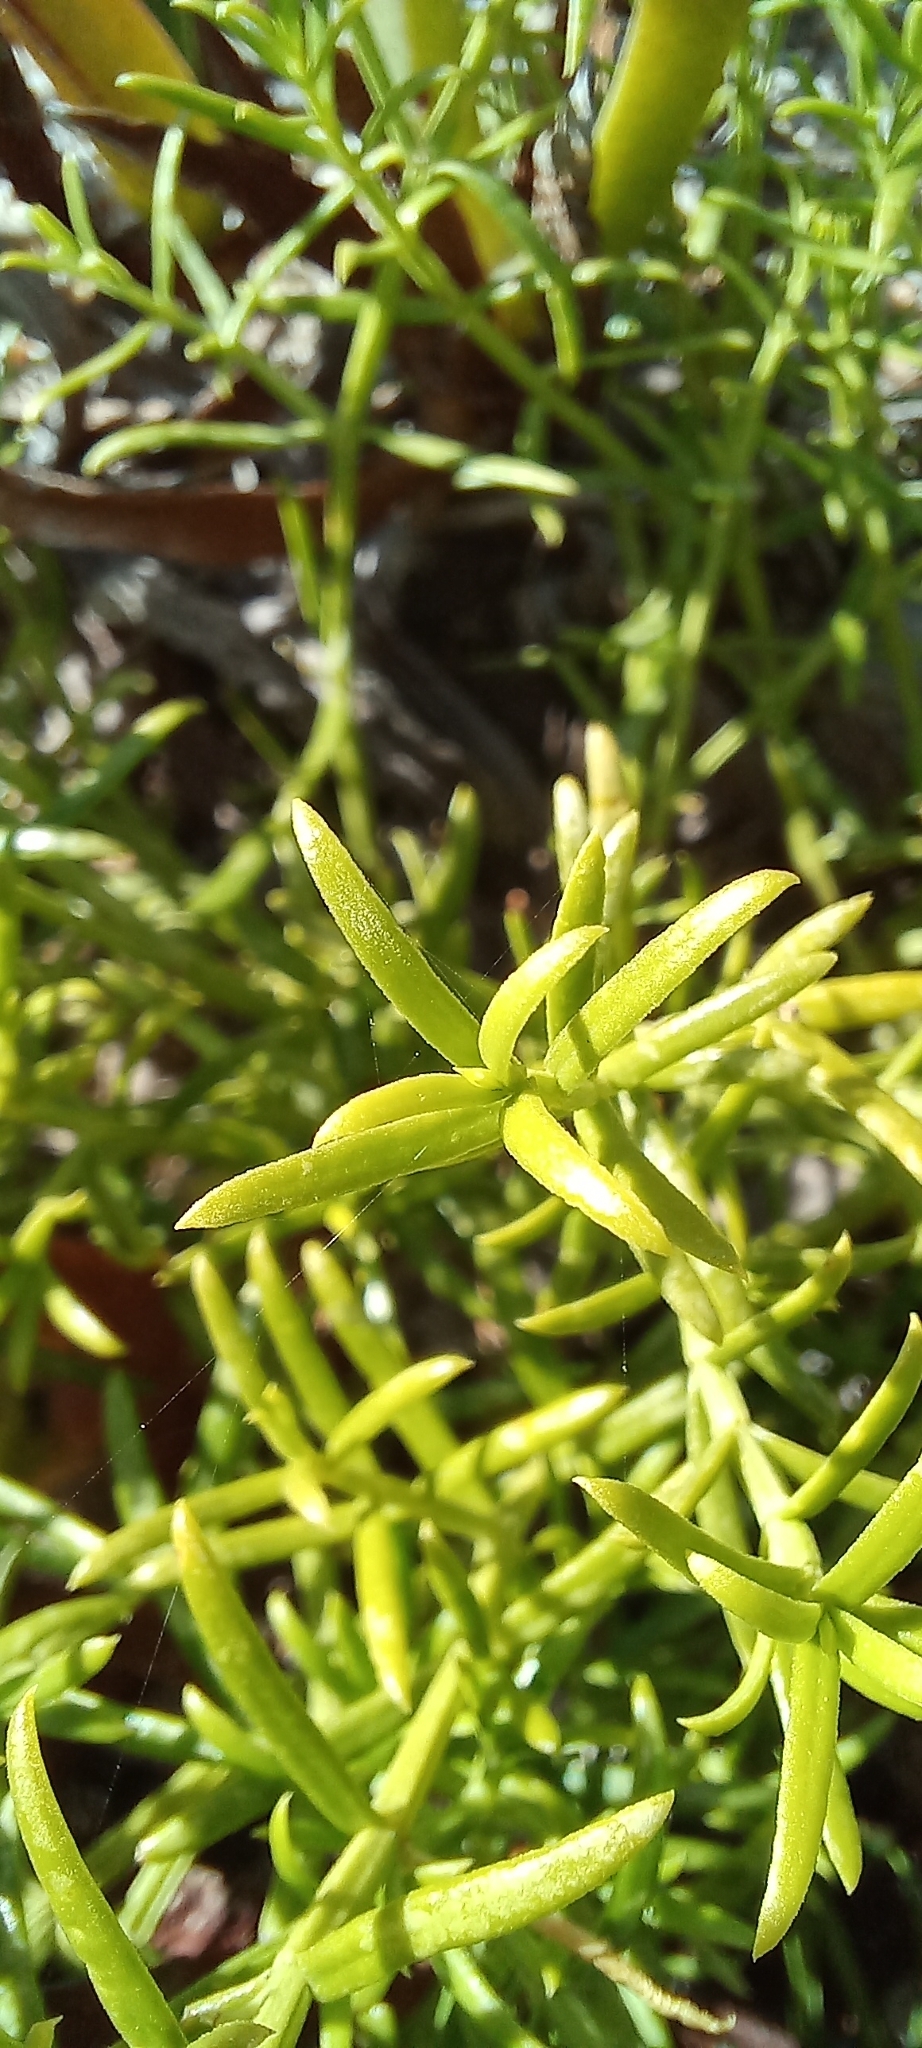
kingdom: Plantae
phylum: Tracheophyta
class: Magnoliopsida
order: Gentianales
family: Gentianaceae
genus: Chironia
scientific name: Chironia baccifera
